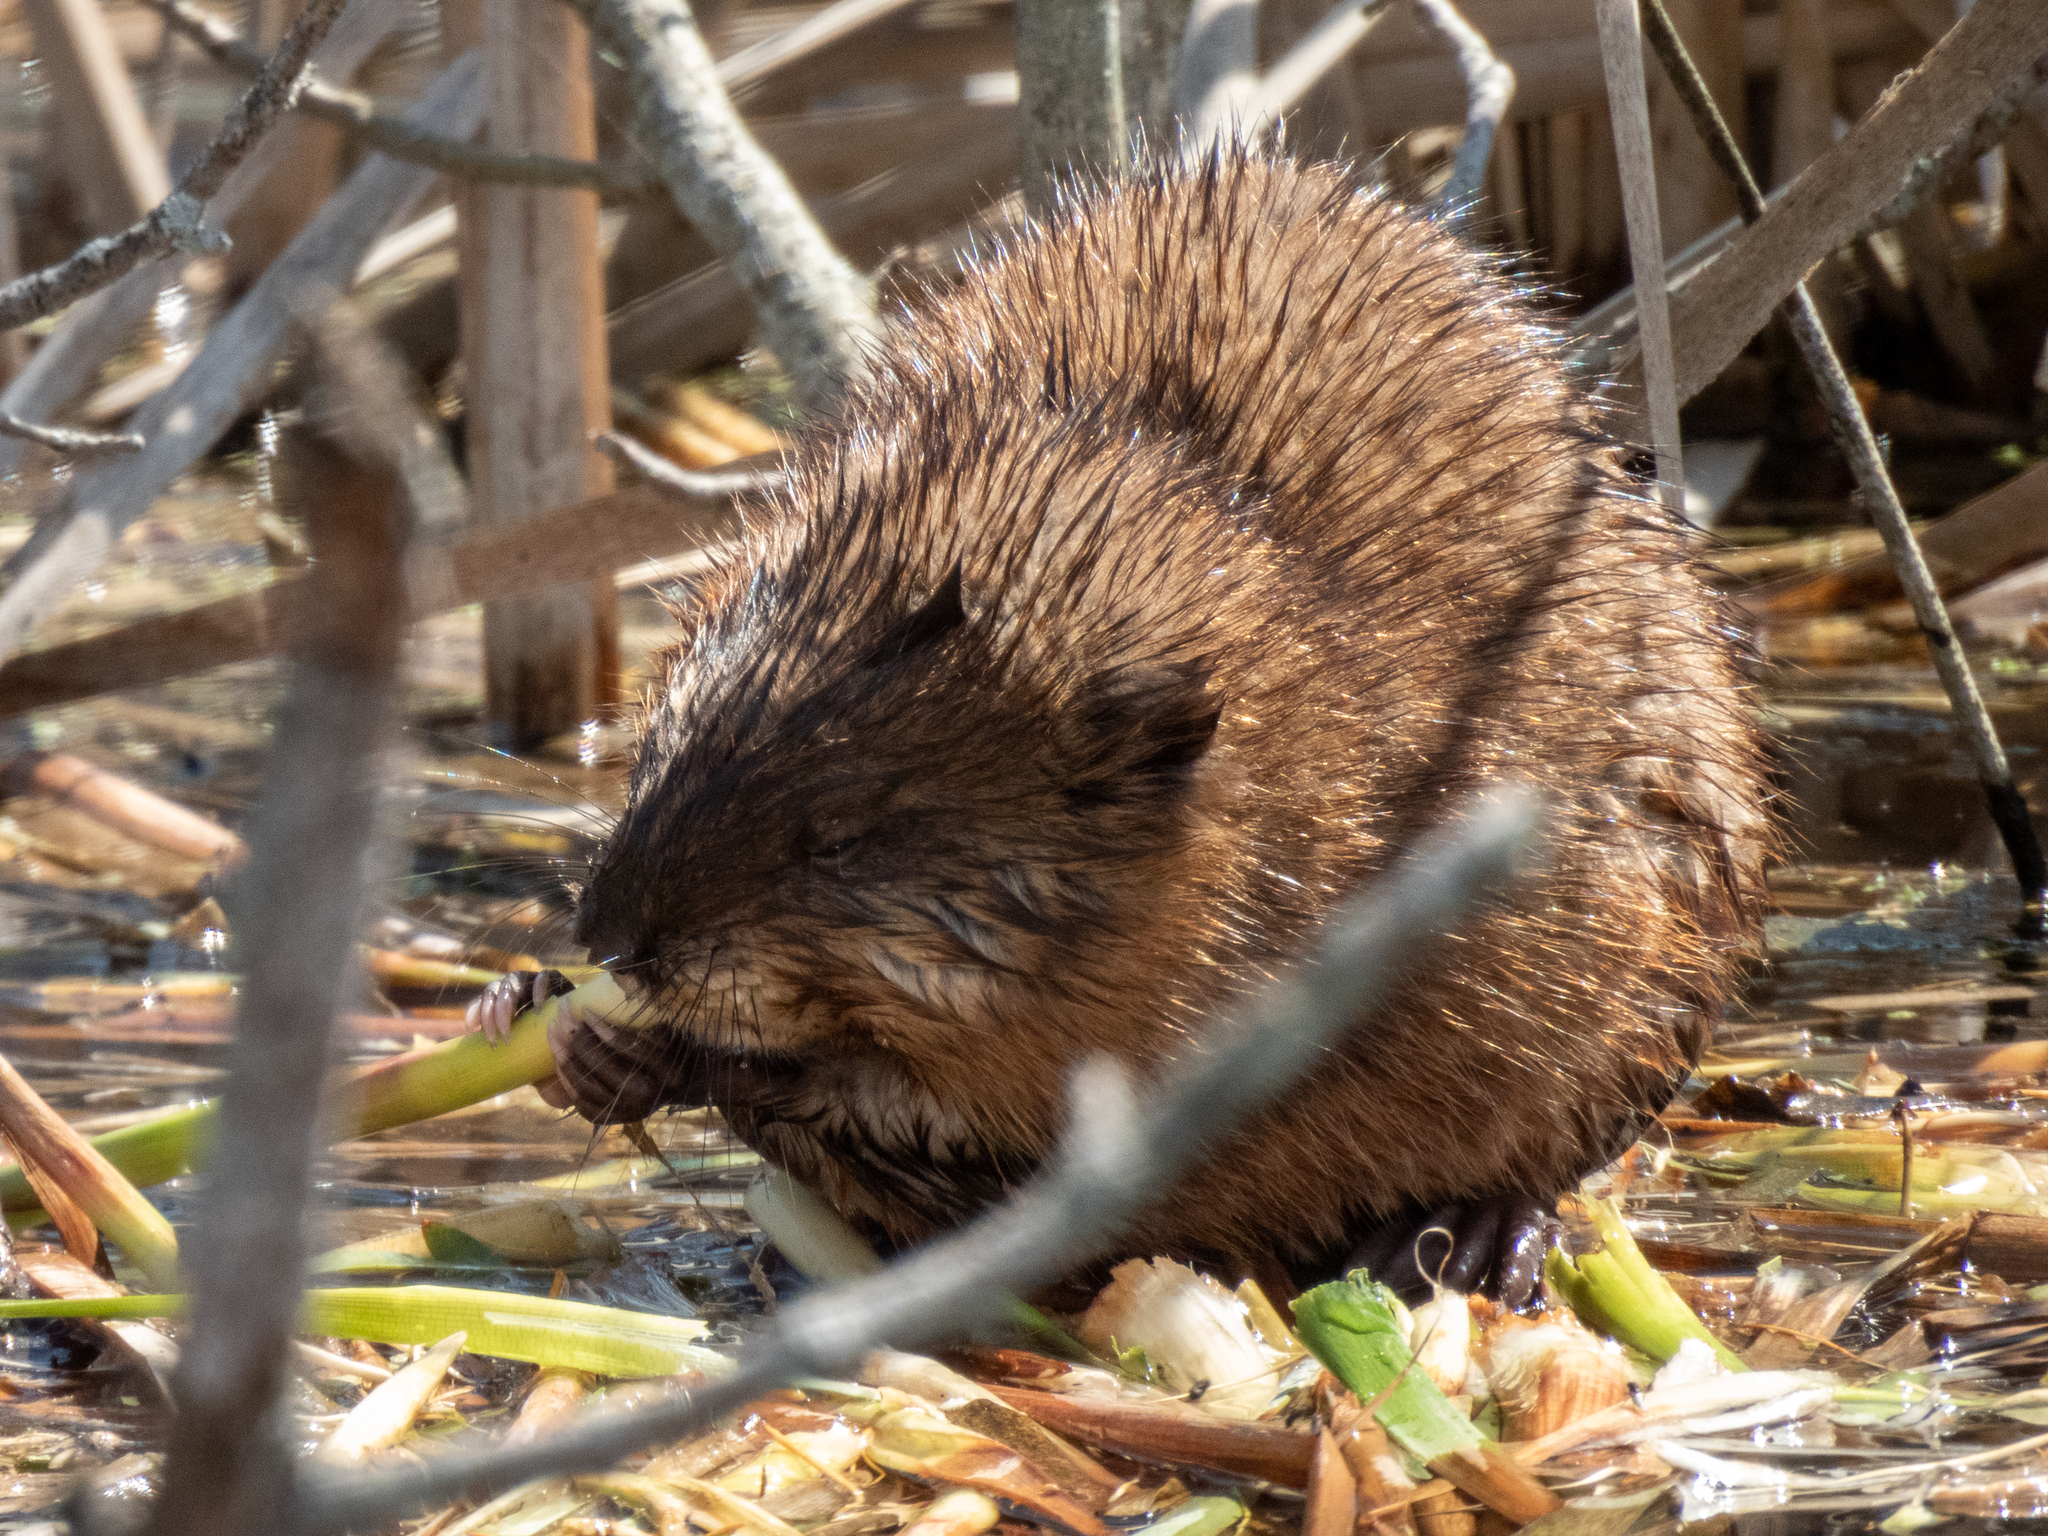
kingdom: Animalia
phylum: Chordata
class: Mammalia
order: Rodentia
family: Cricetidae
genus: Ondatra
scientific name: Ondatra zibethicus
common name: Muskrat
